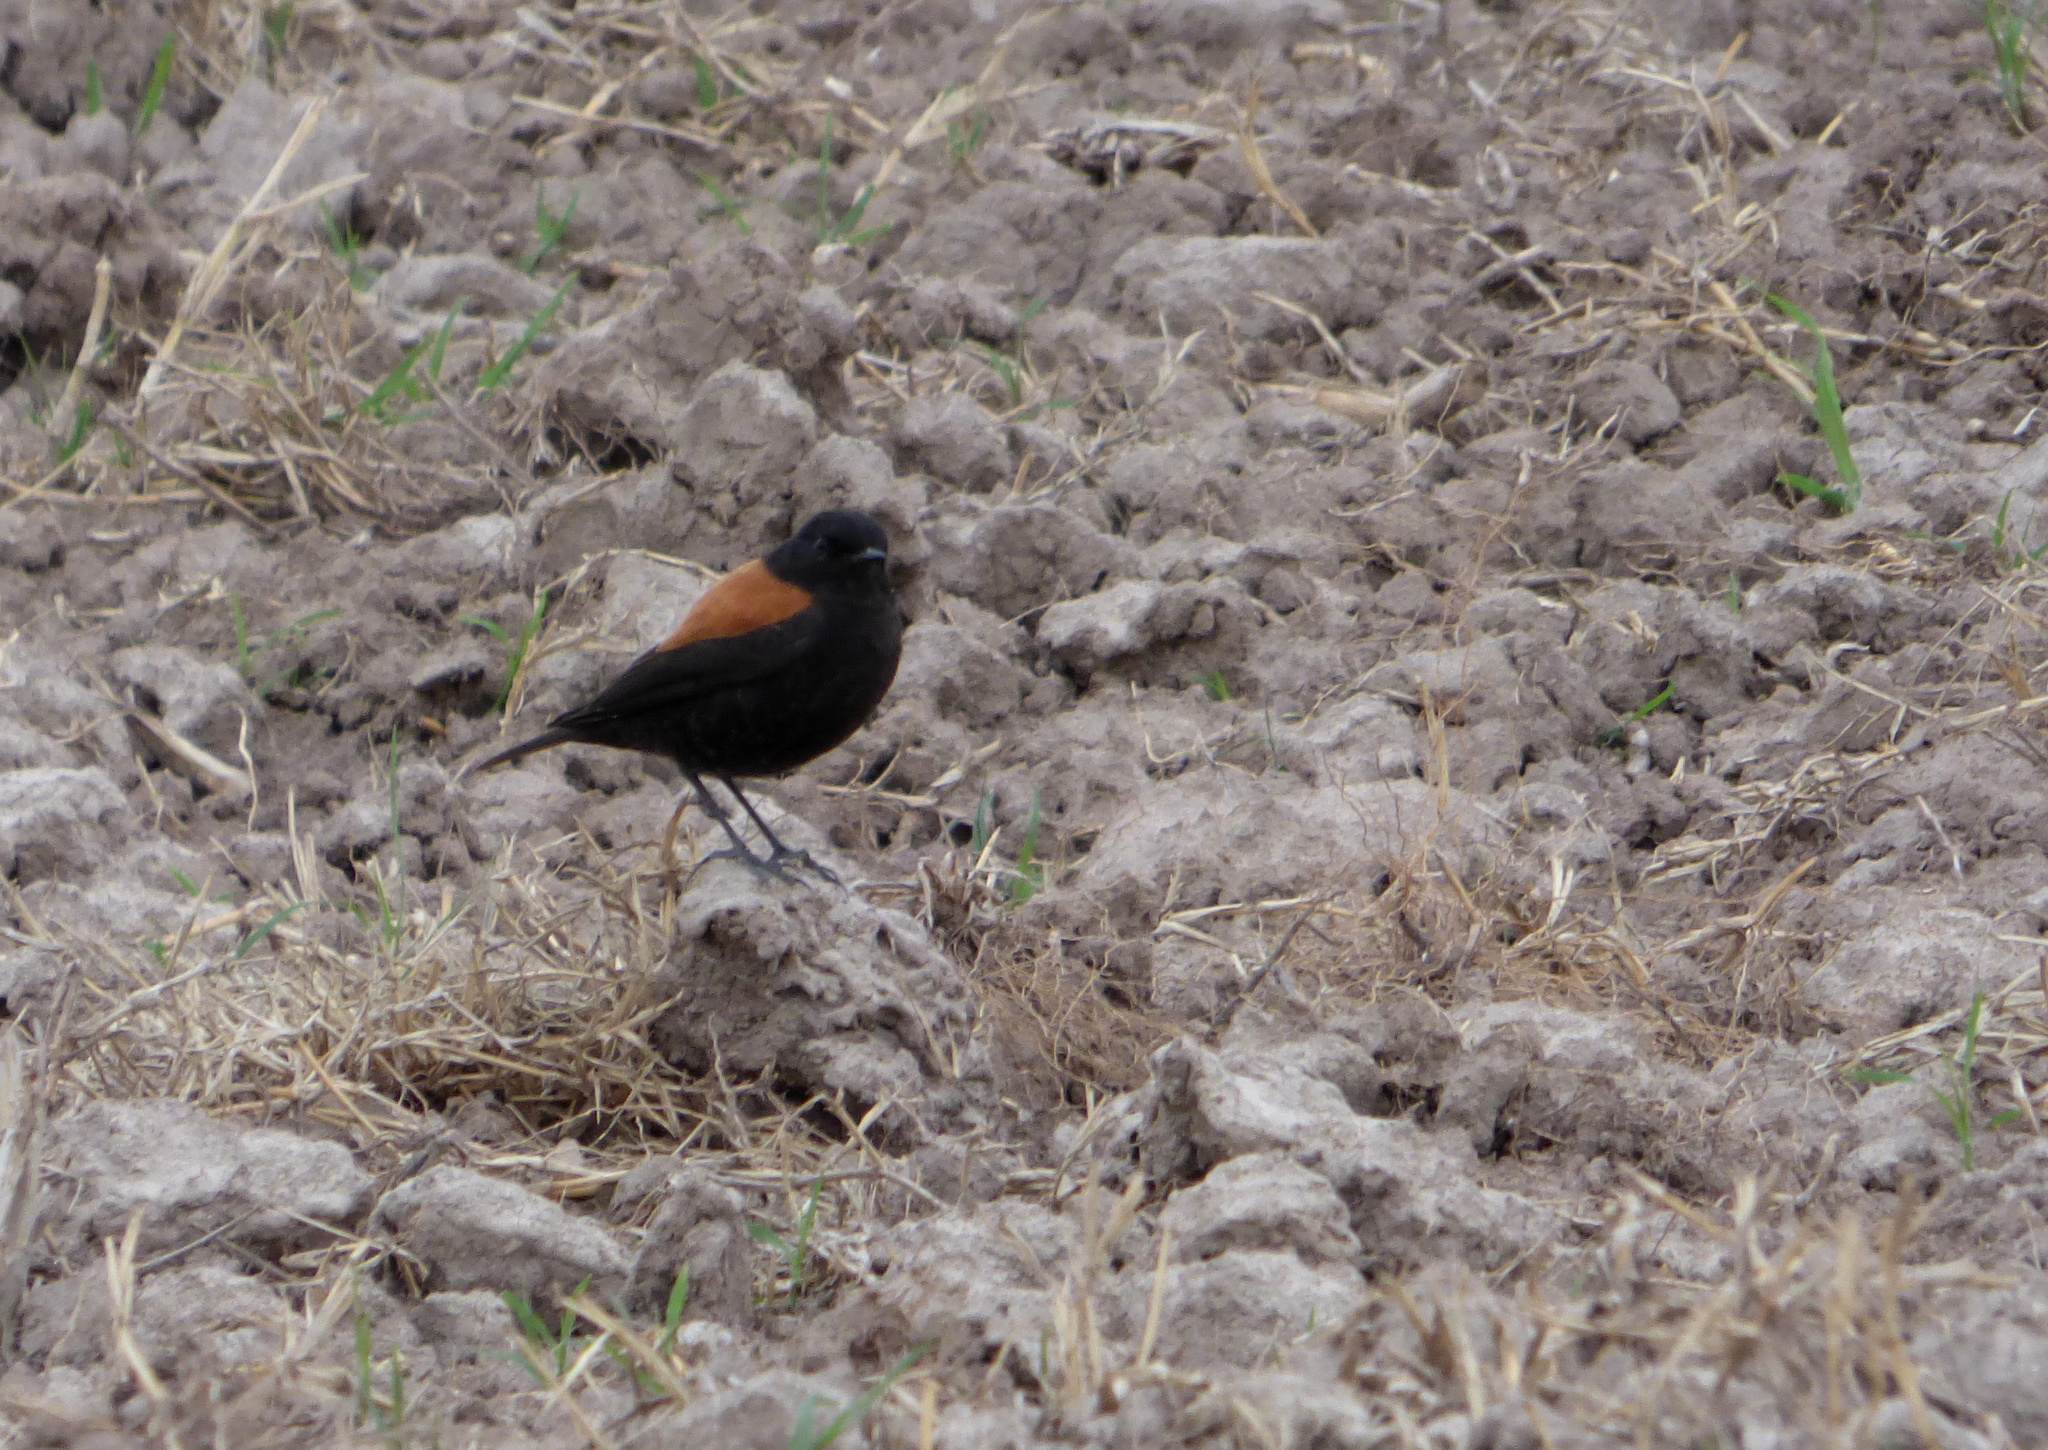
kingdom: Animalia
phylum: Chordata
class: Aves
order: Passeriformes
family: Tyrannidae
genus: Lessonia
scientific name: Lessonia rufa
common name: Austral negrito
